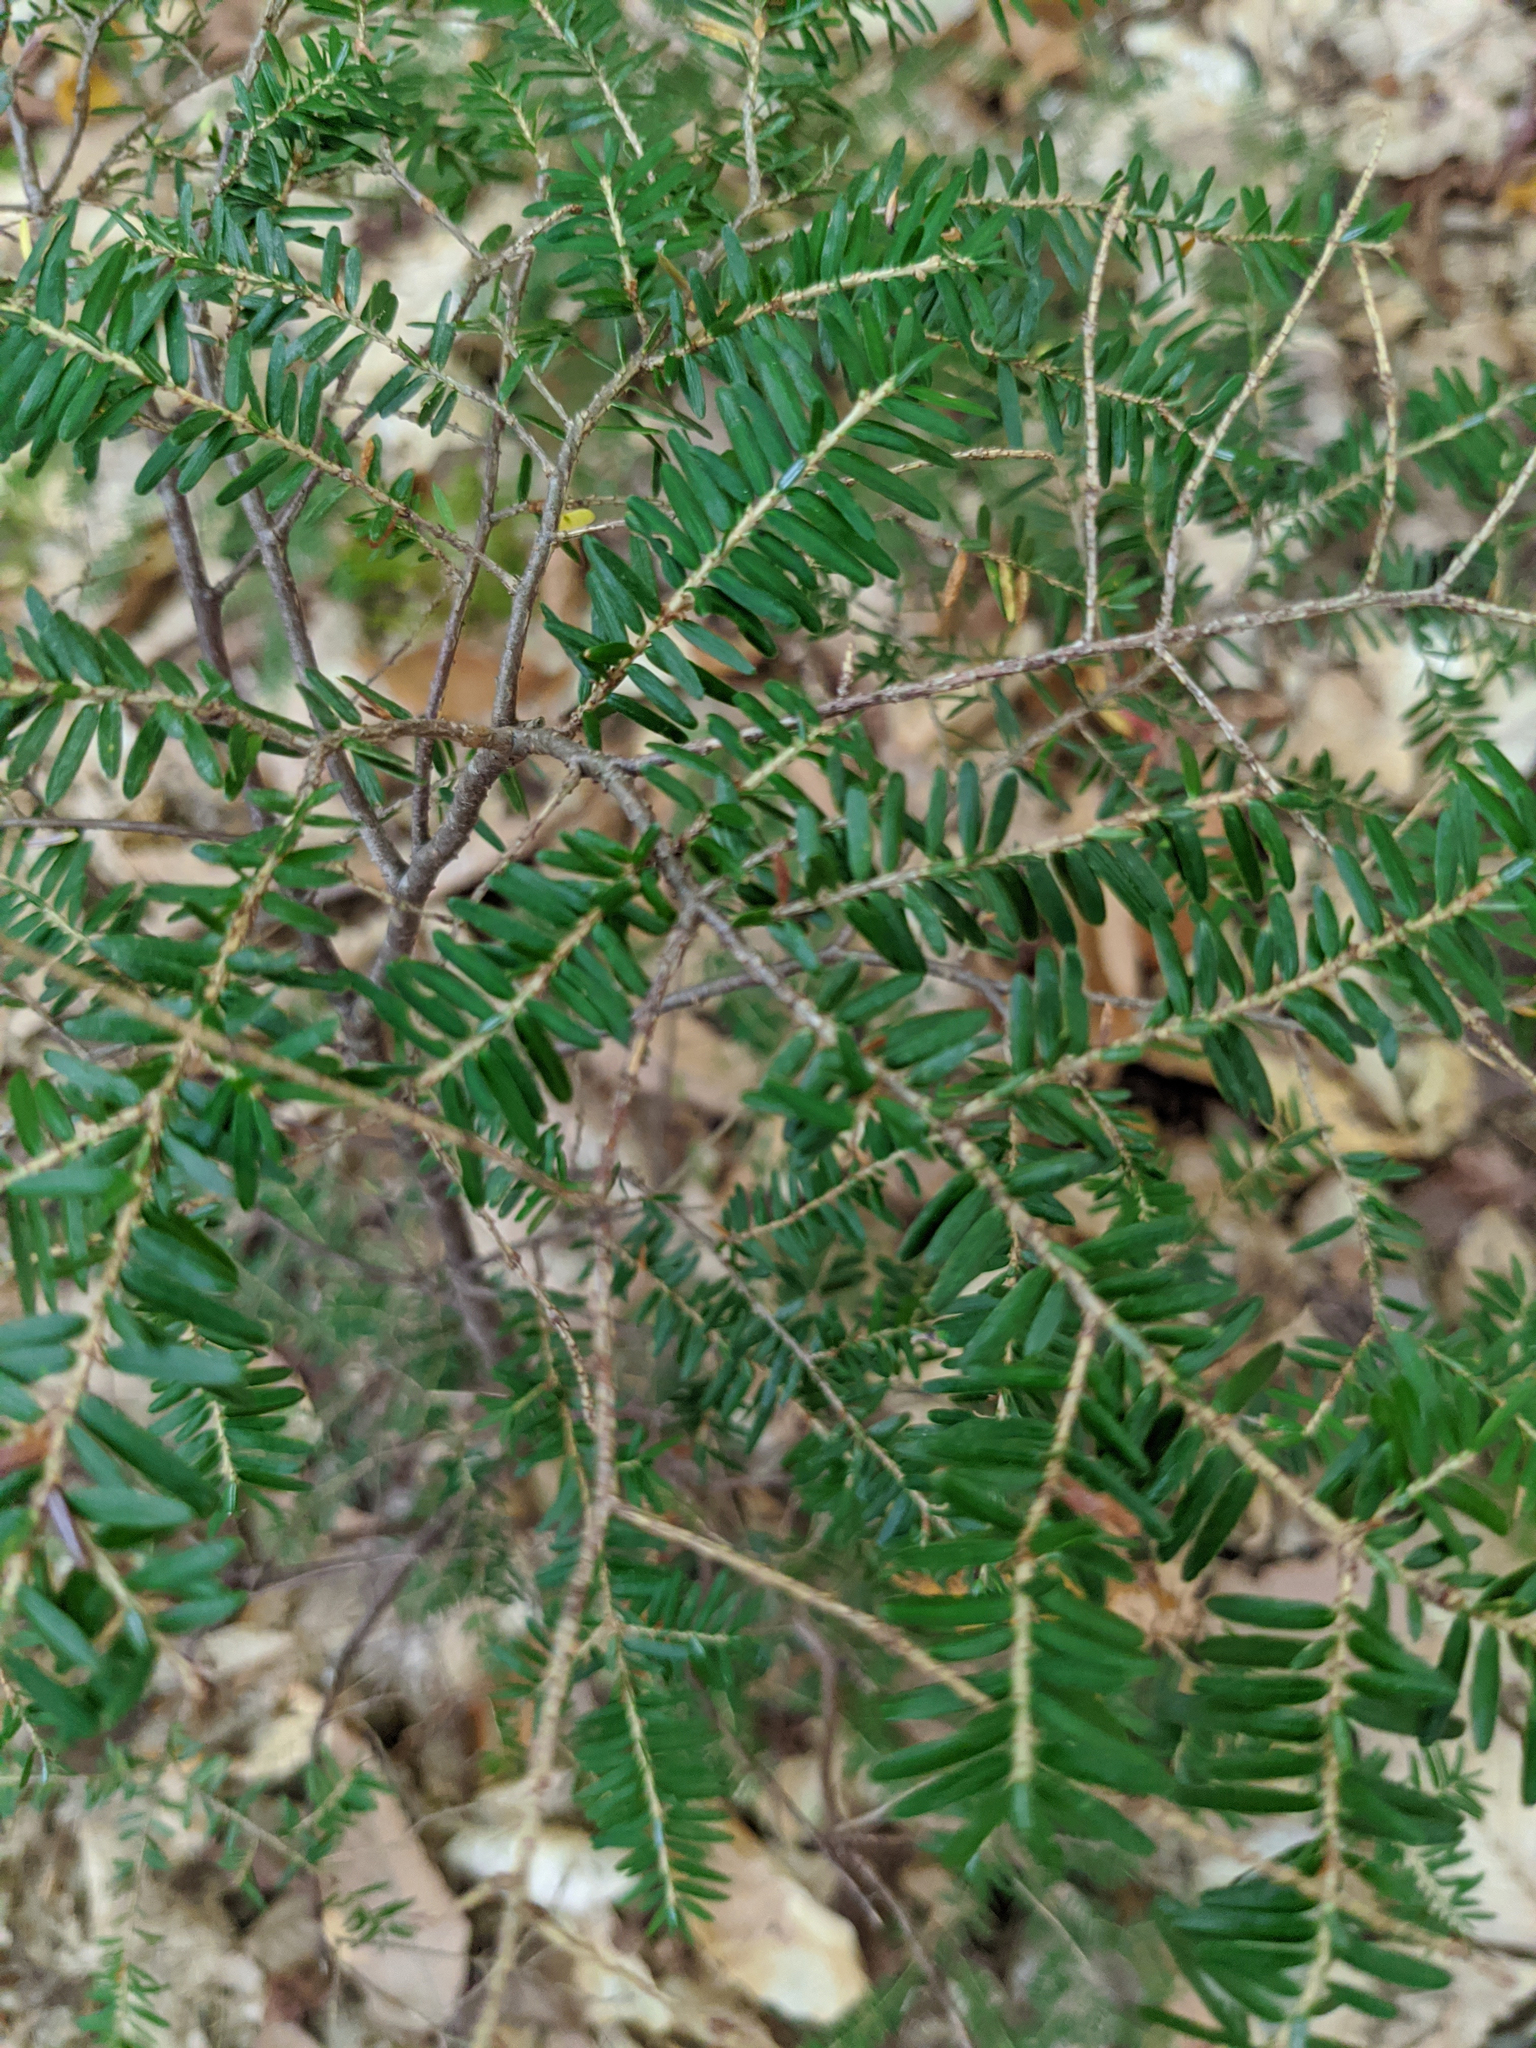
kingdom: Plantae
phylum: Tracheophyta
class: Pinopsida
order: Pinales
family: Pinaceae
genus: Tsuga
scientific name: Tsuga canadensis
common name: Eastern hemlock
